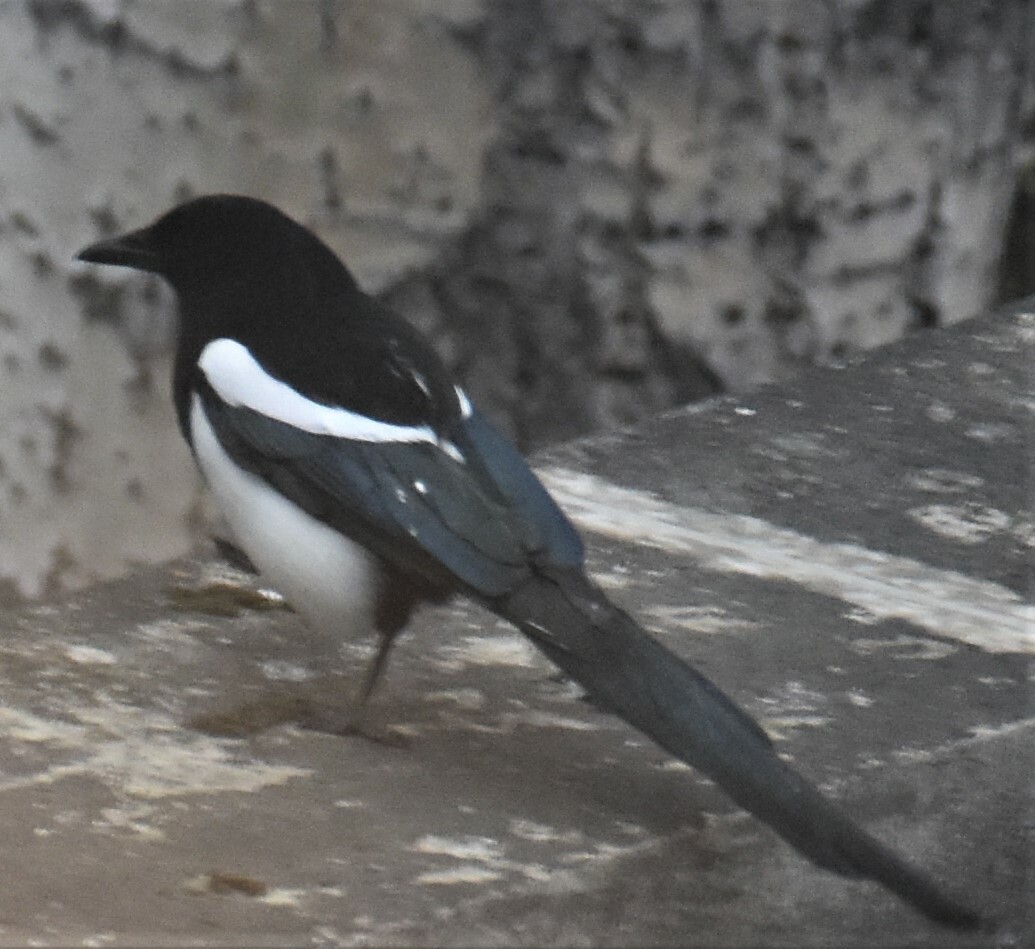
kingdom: Animalia
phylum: Chordata
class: Aves
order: Passeriformes
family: Corvidae
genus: Pica
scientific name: Pica hudsonia
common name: Black-billed magpie
